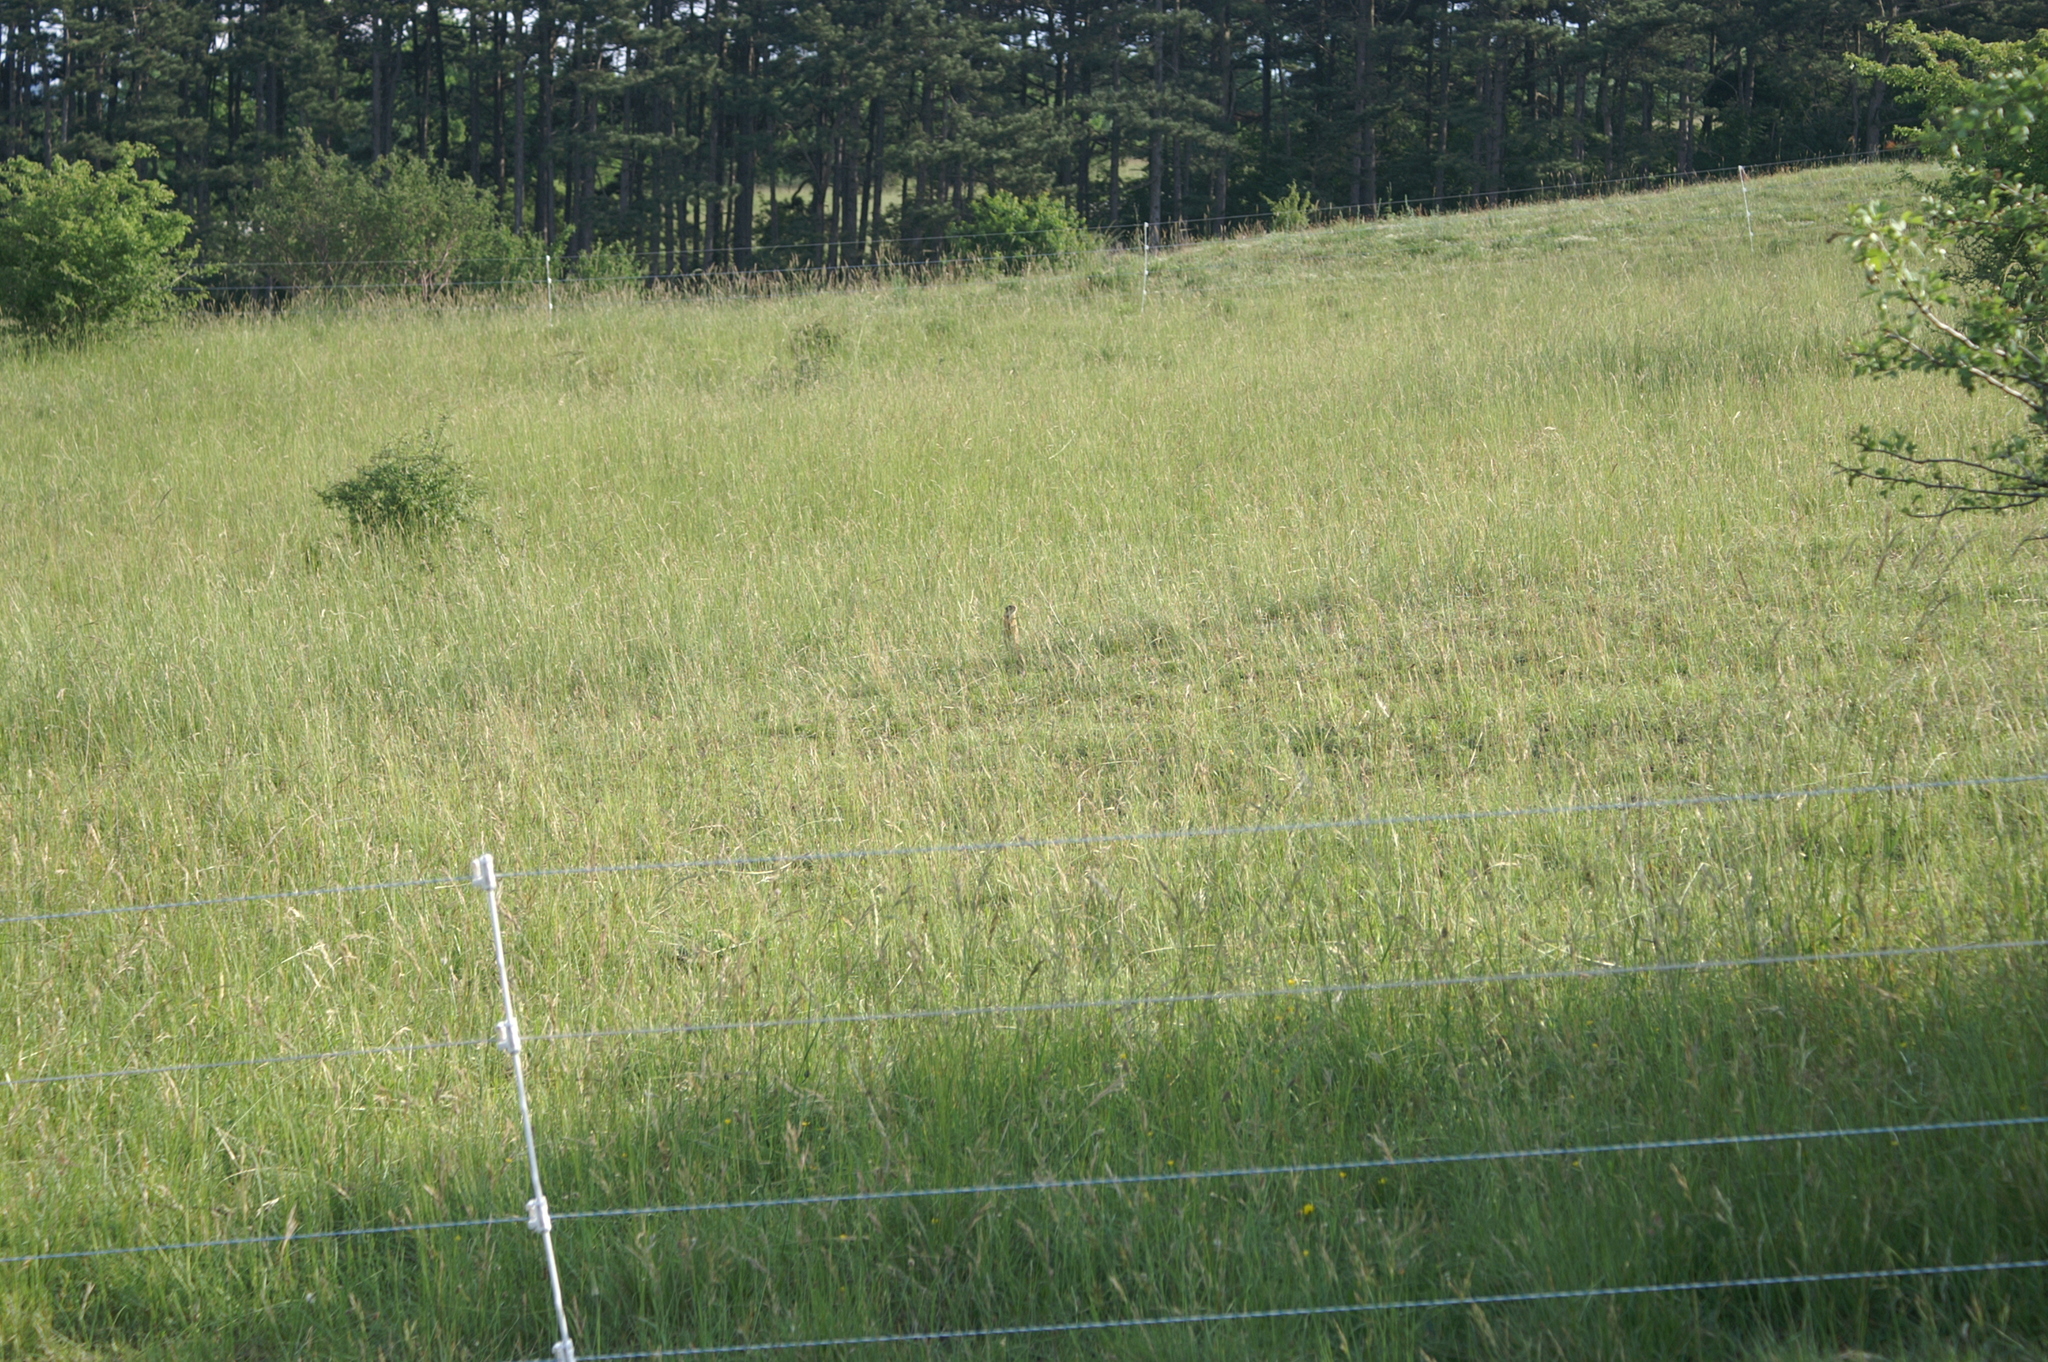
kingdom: Animalia
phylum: Chordata
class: Mammalia
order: Rodentia
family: Sciuridae
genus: Spermophilus
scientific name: Spermophilus citellus
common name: European ground squirrel
